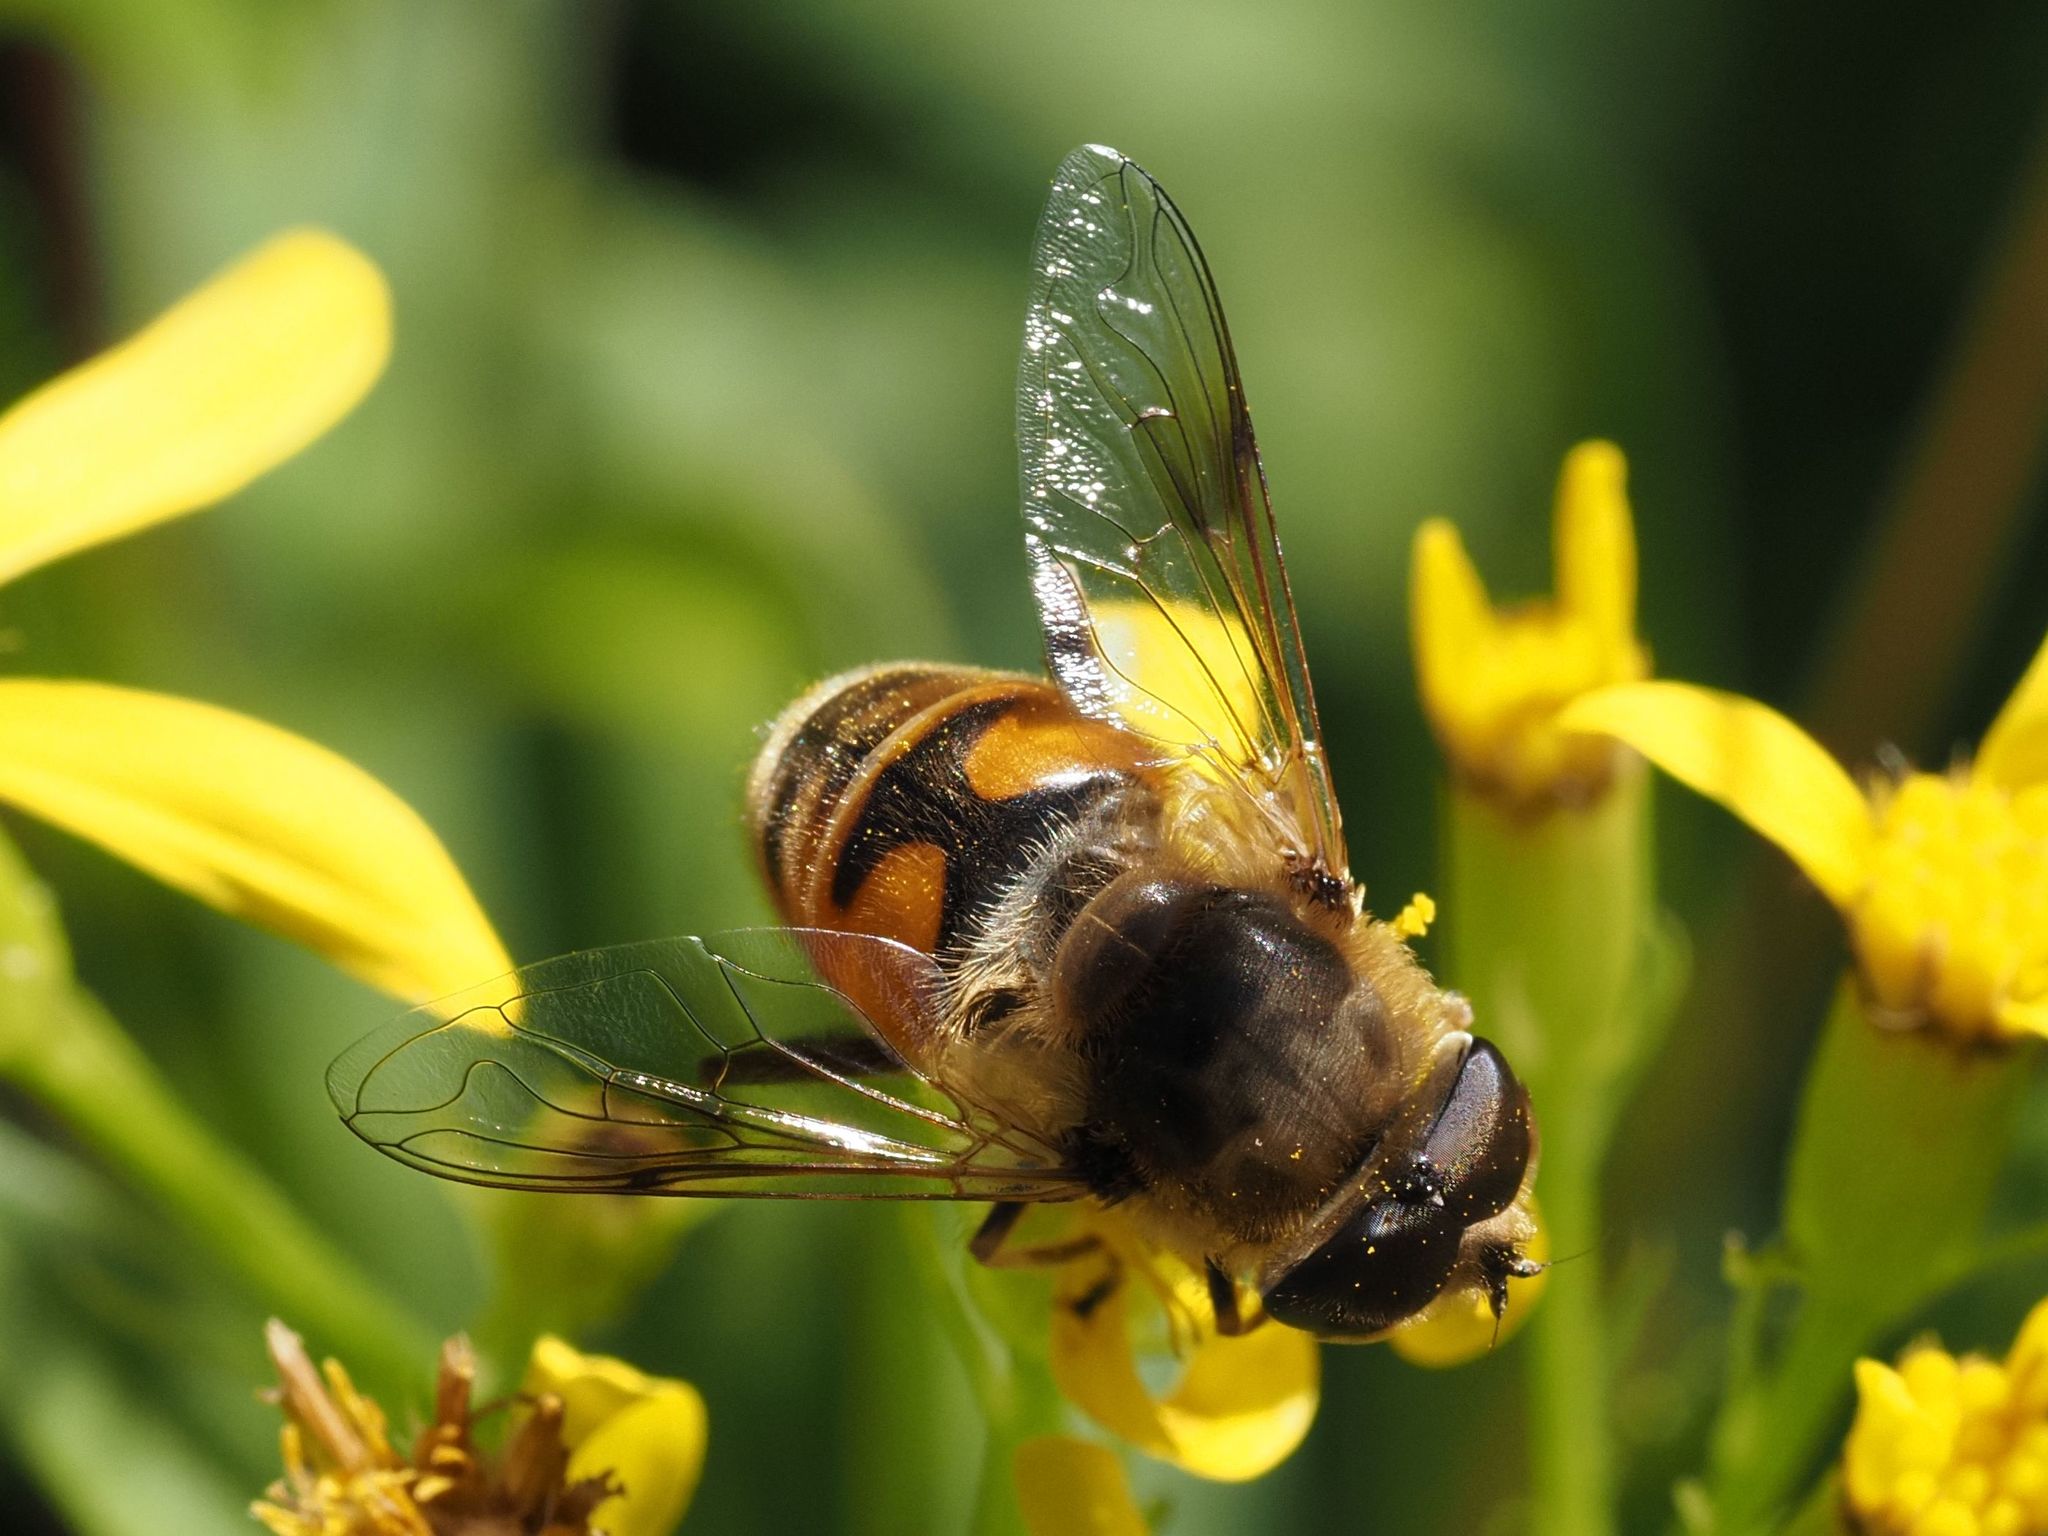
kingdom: Animalia
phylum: Arthropoda
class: Insecta
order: Diptera
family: Syrphidae
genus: Eristalis
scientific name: Eristalis tenax
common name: Drone fly
